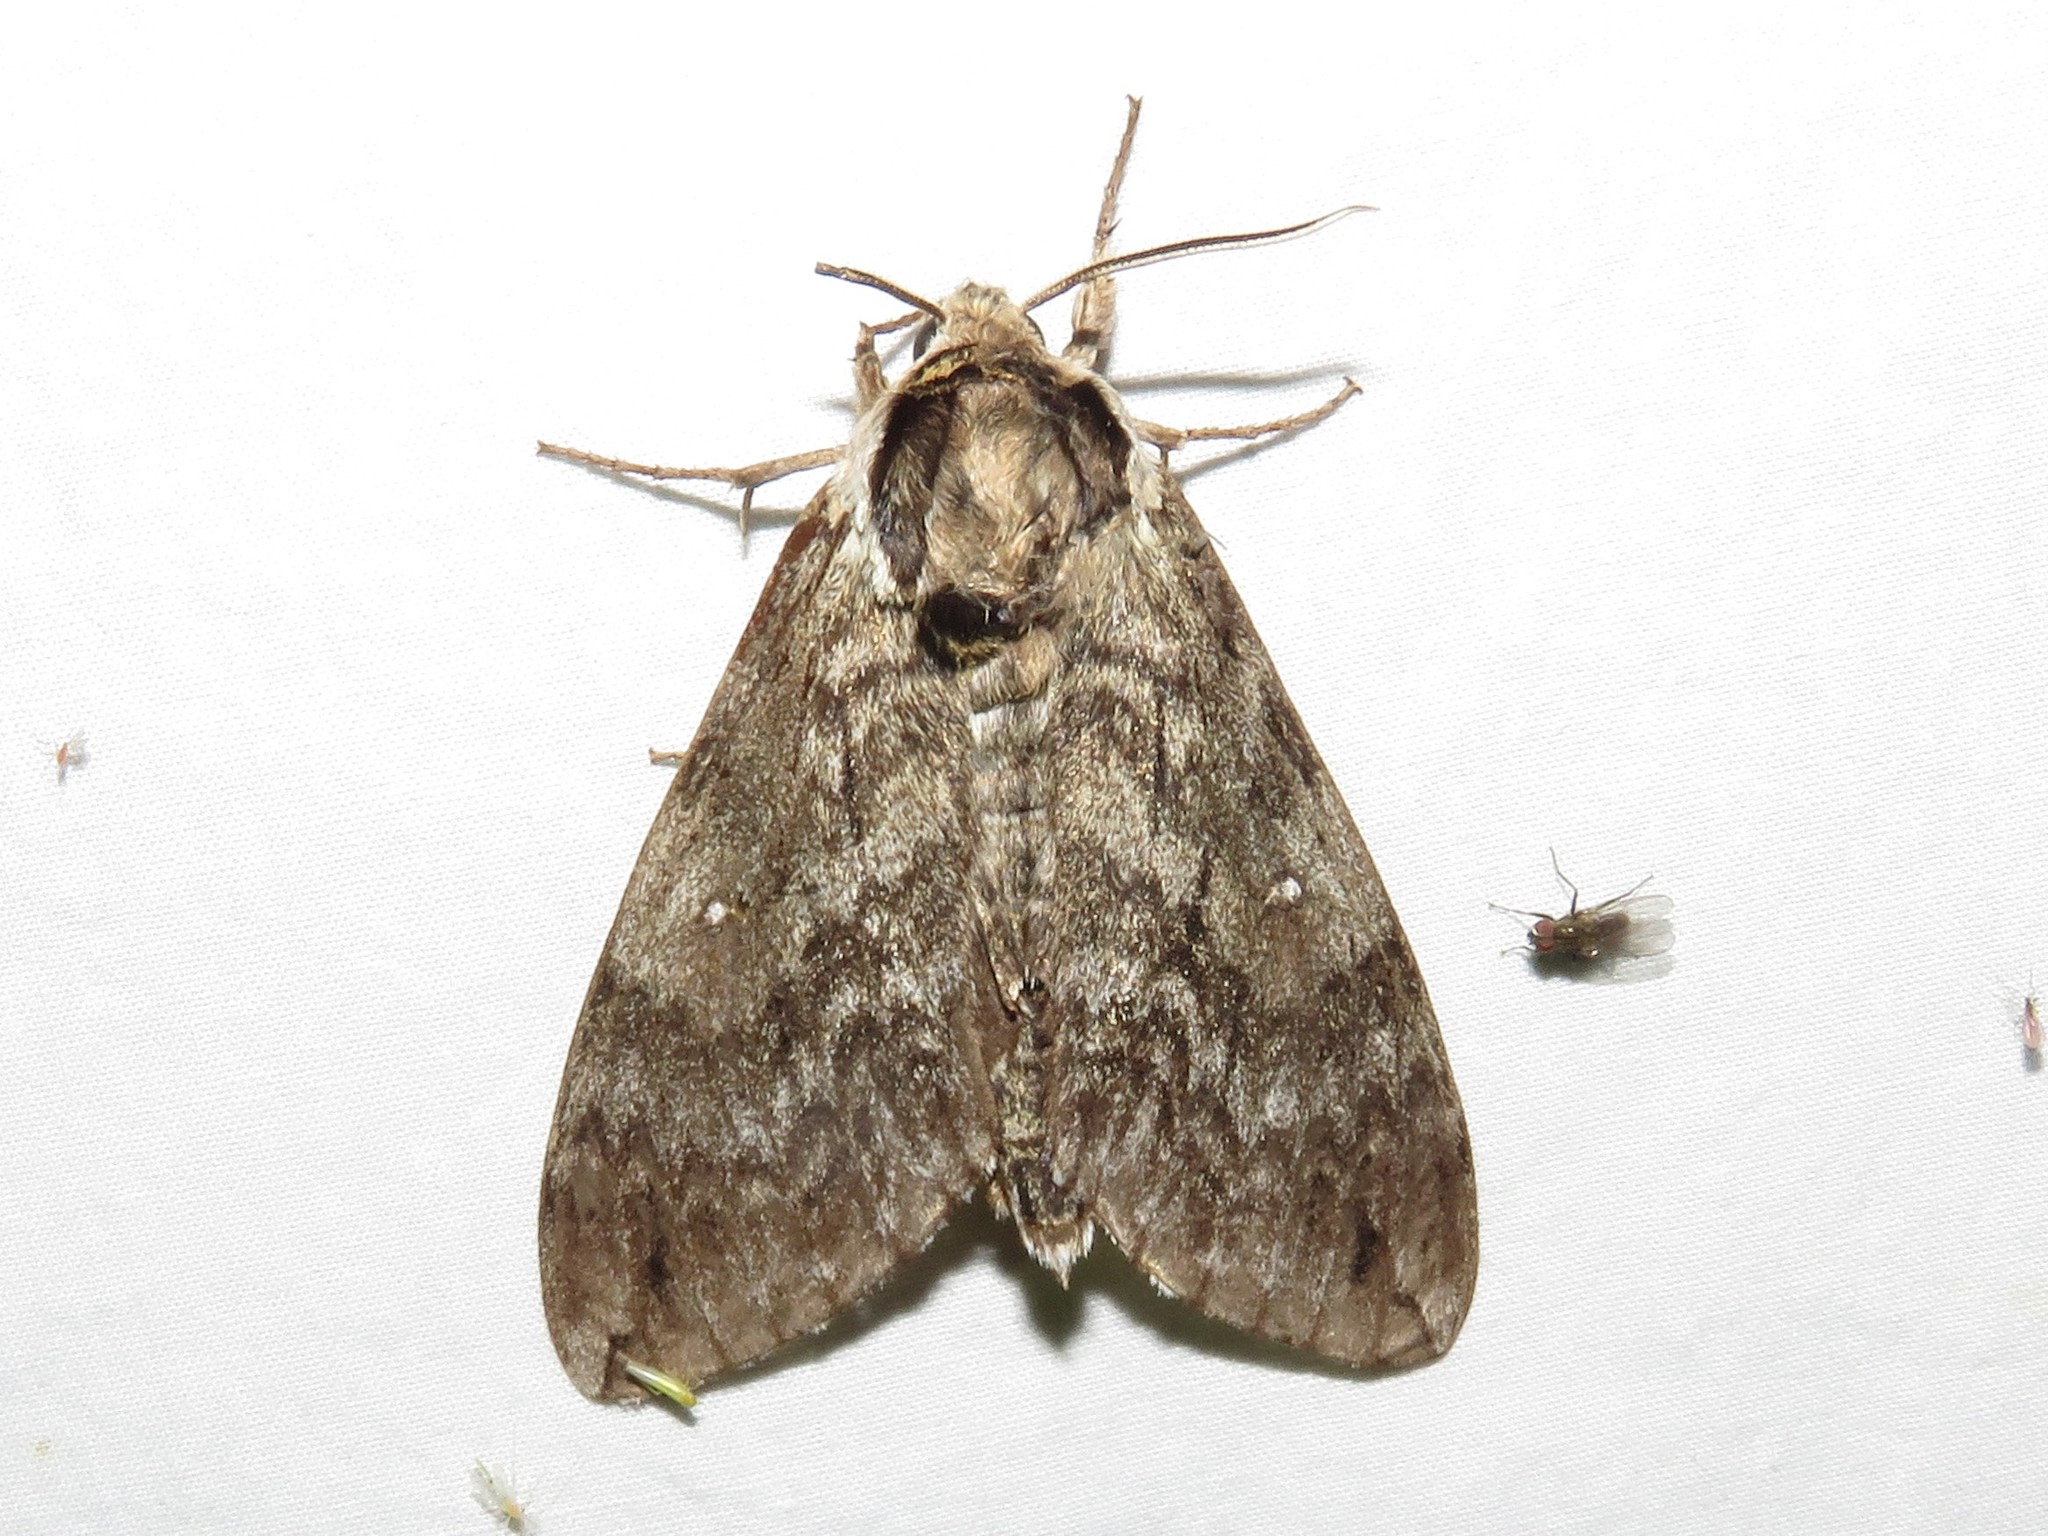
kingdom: Animalia
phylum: Arthropoda
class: Insecta
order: Lepidoptera
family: Sphingidae
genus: Ceratomia
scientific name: Ceratomia undulosa
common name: Waved sphinx
